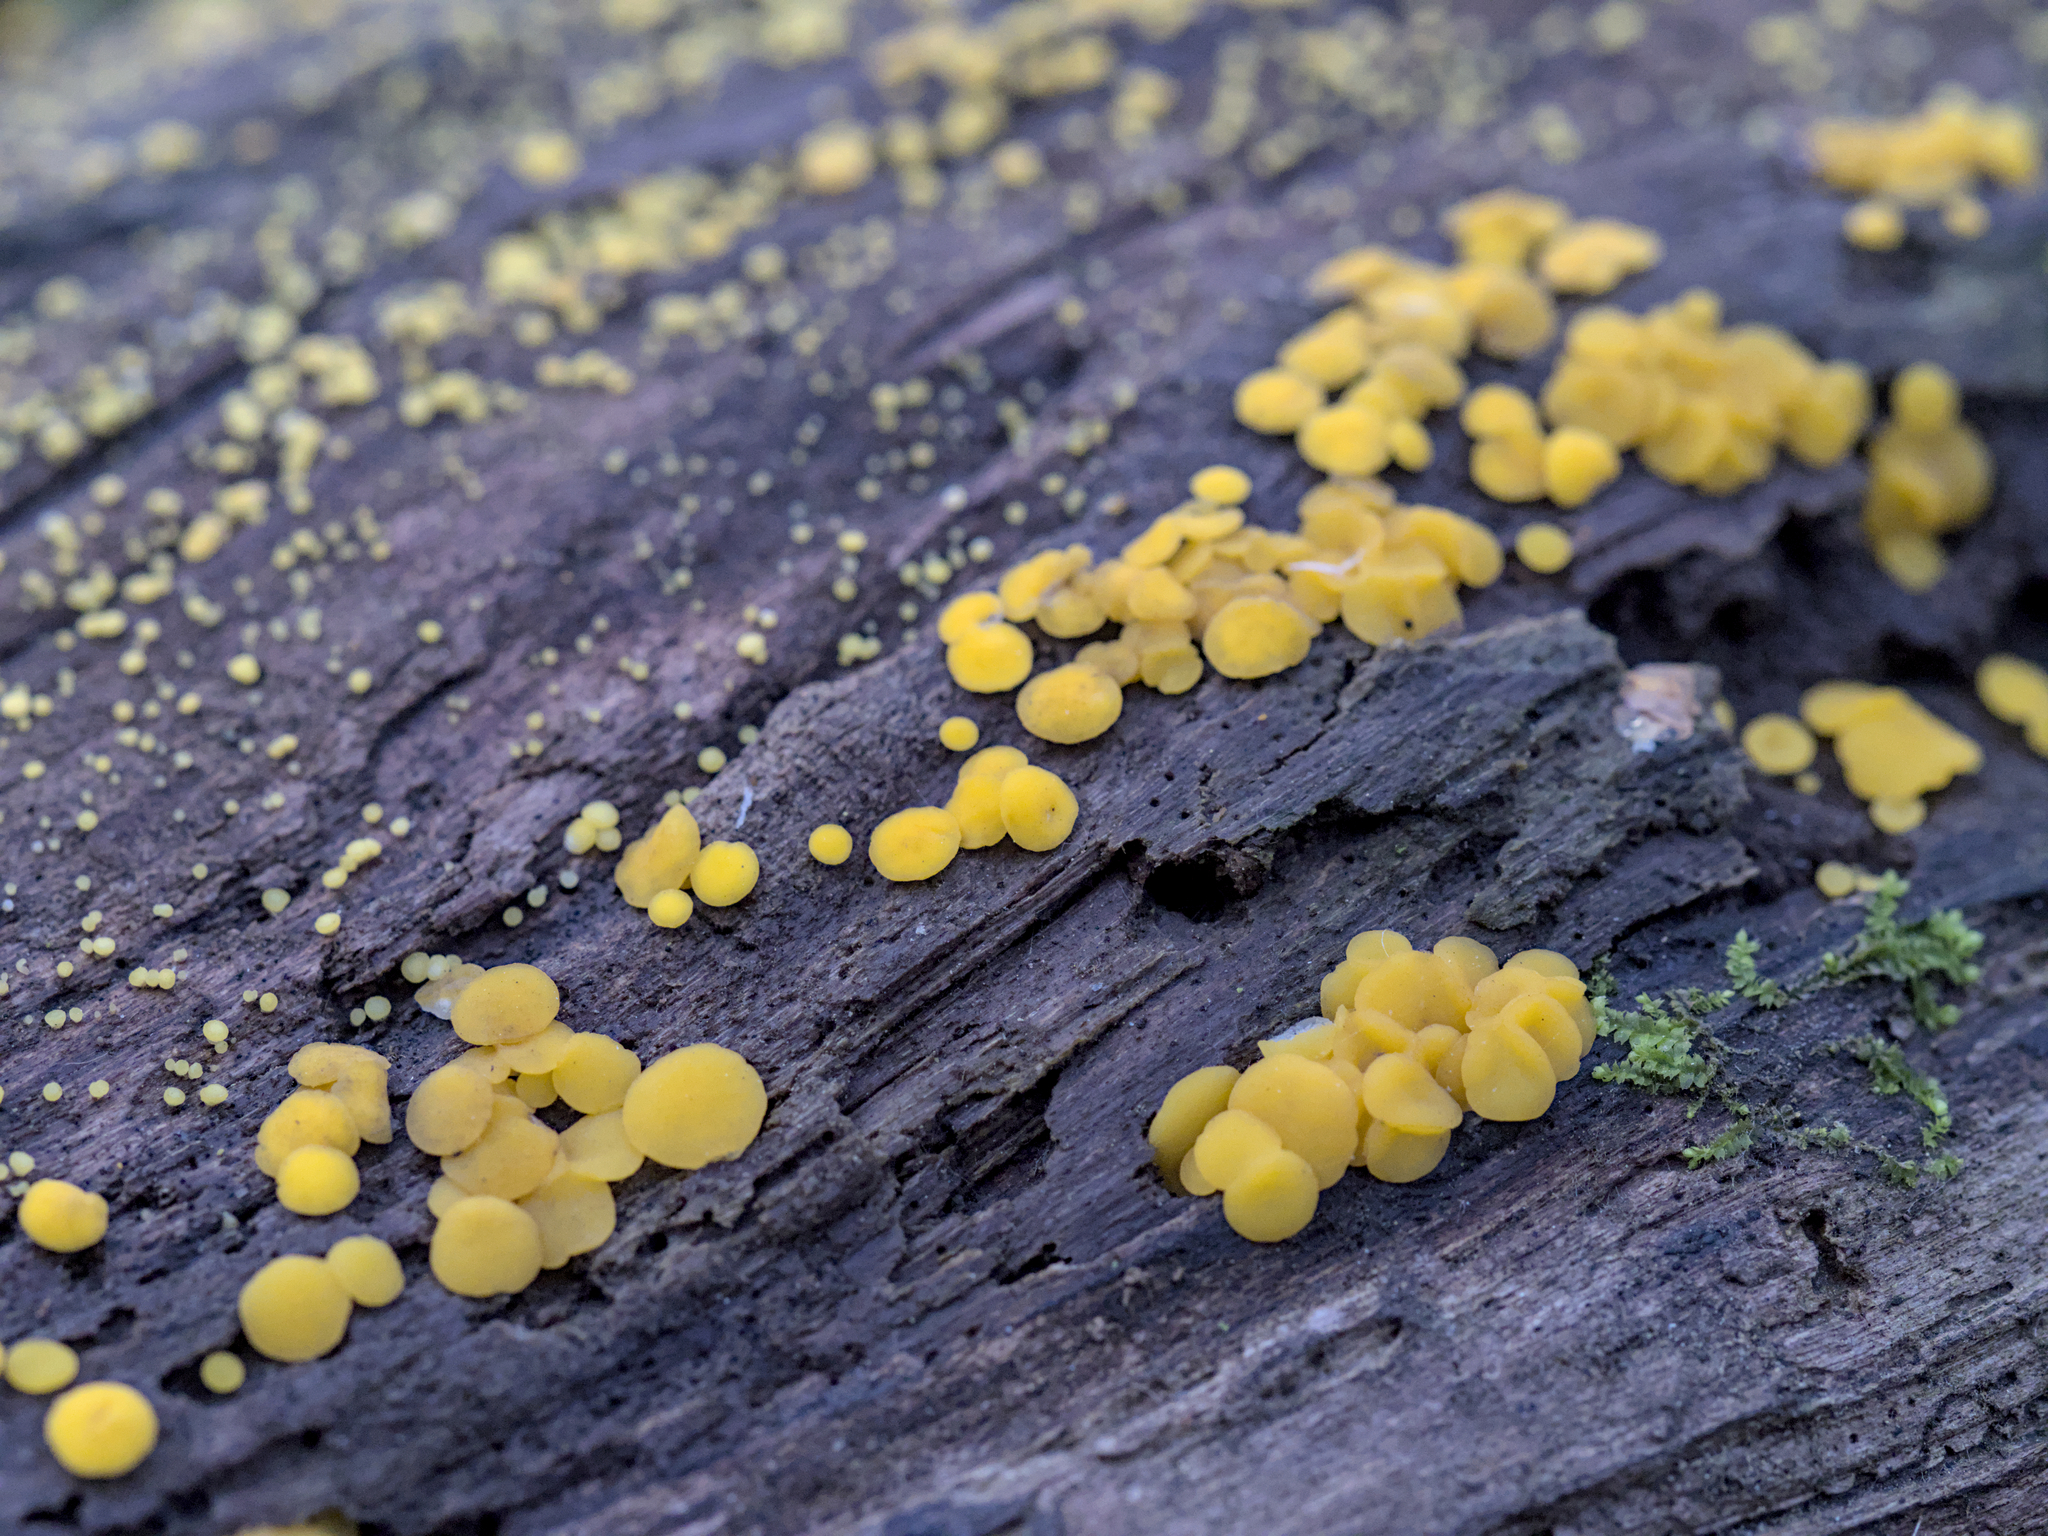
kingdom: Fungi
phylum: Ascomycota
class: Leotiomycetes
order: Helotiales
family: Pezizellaceae
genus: Calycina
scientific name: Calycina citrina
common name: Yellow fairy cups
